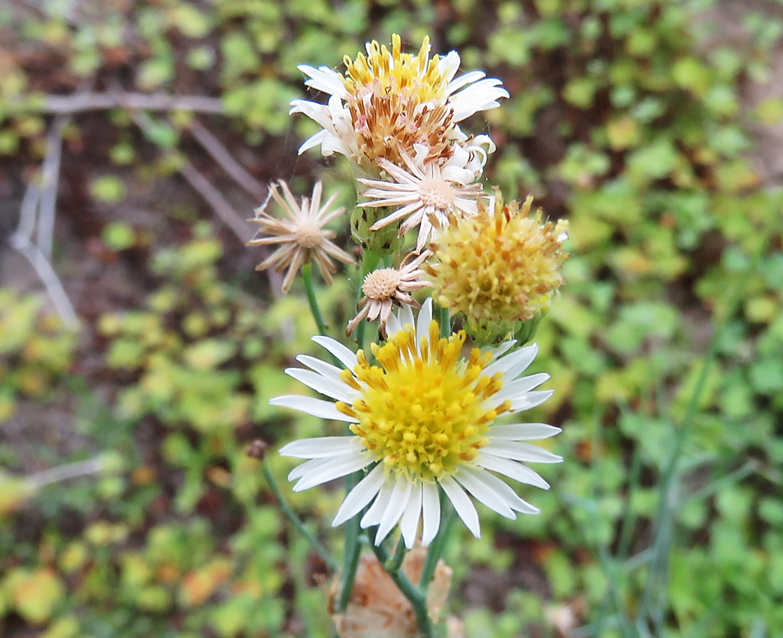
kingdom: Plantae
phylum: Tracheophyta
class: Magnoliopsida
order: Asterales
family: Asteraceae
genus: Chloracantha
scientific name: Chloracantha spinosa
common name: Mexican devilweed
